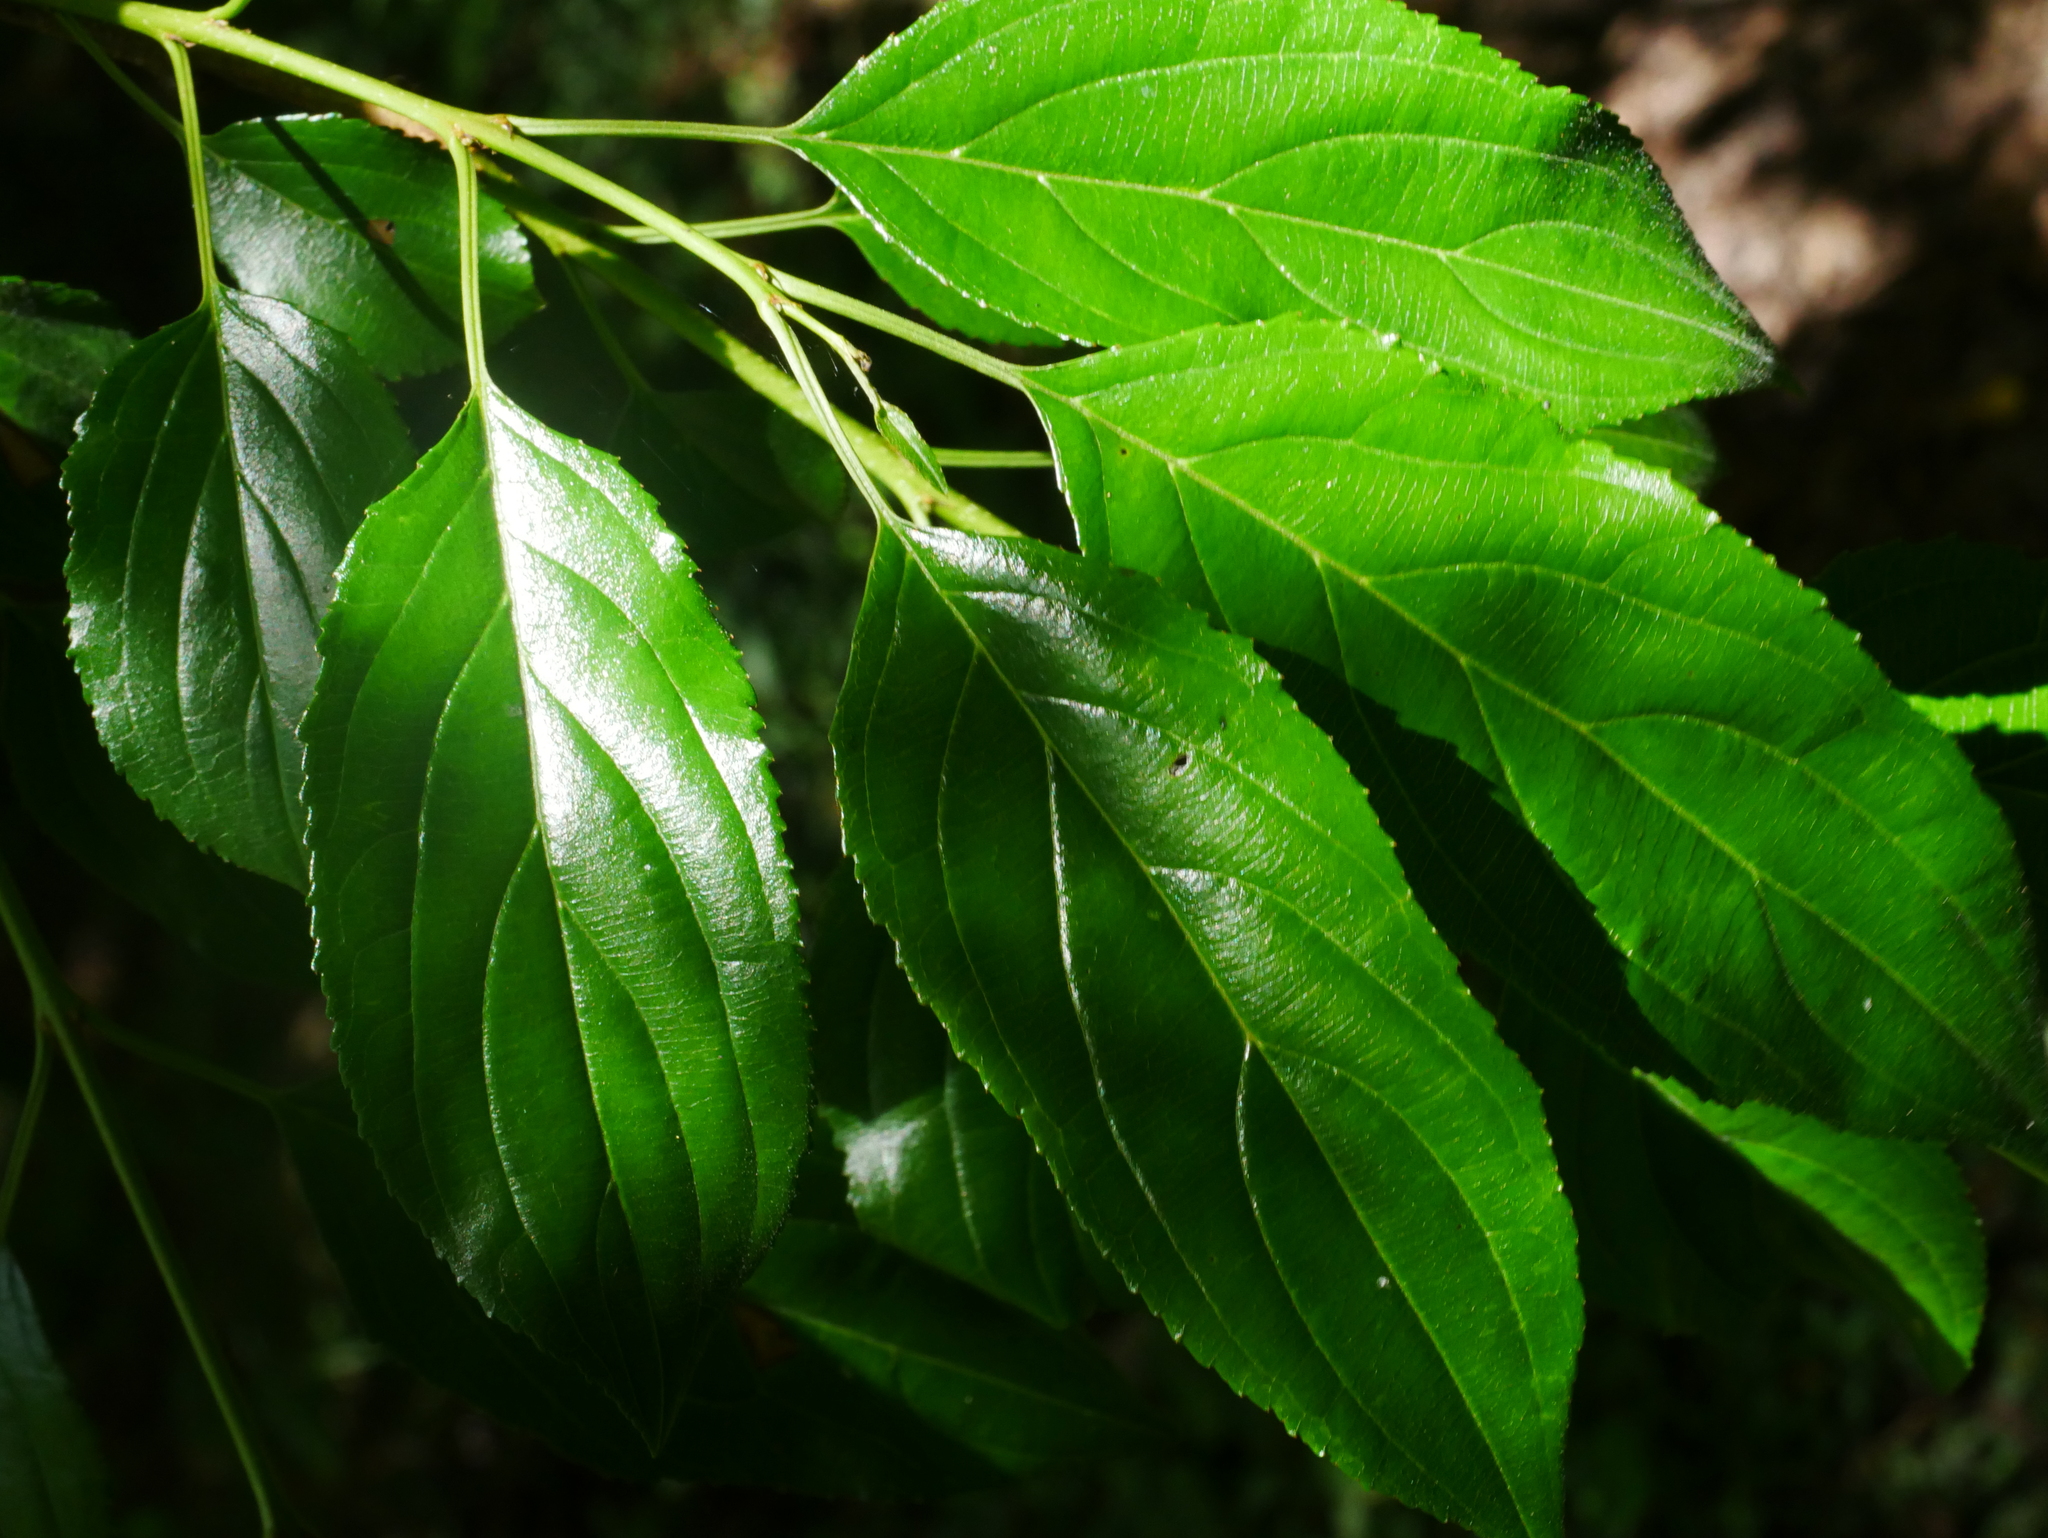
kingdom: Plantae
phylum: Tracheophyta
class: Magnoliopsida
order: Rosales
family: Rhamnaceae
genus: Rhamnus
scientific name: Rhamnus pilushanensis
